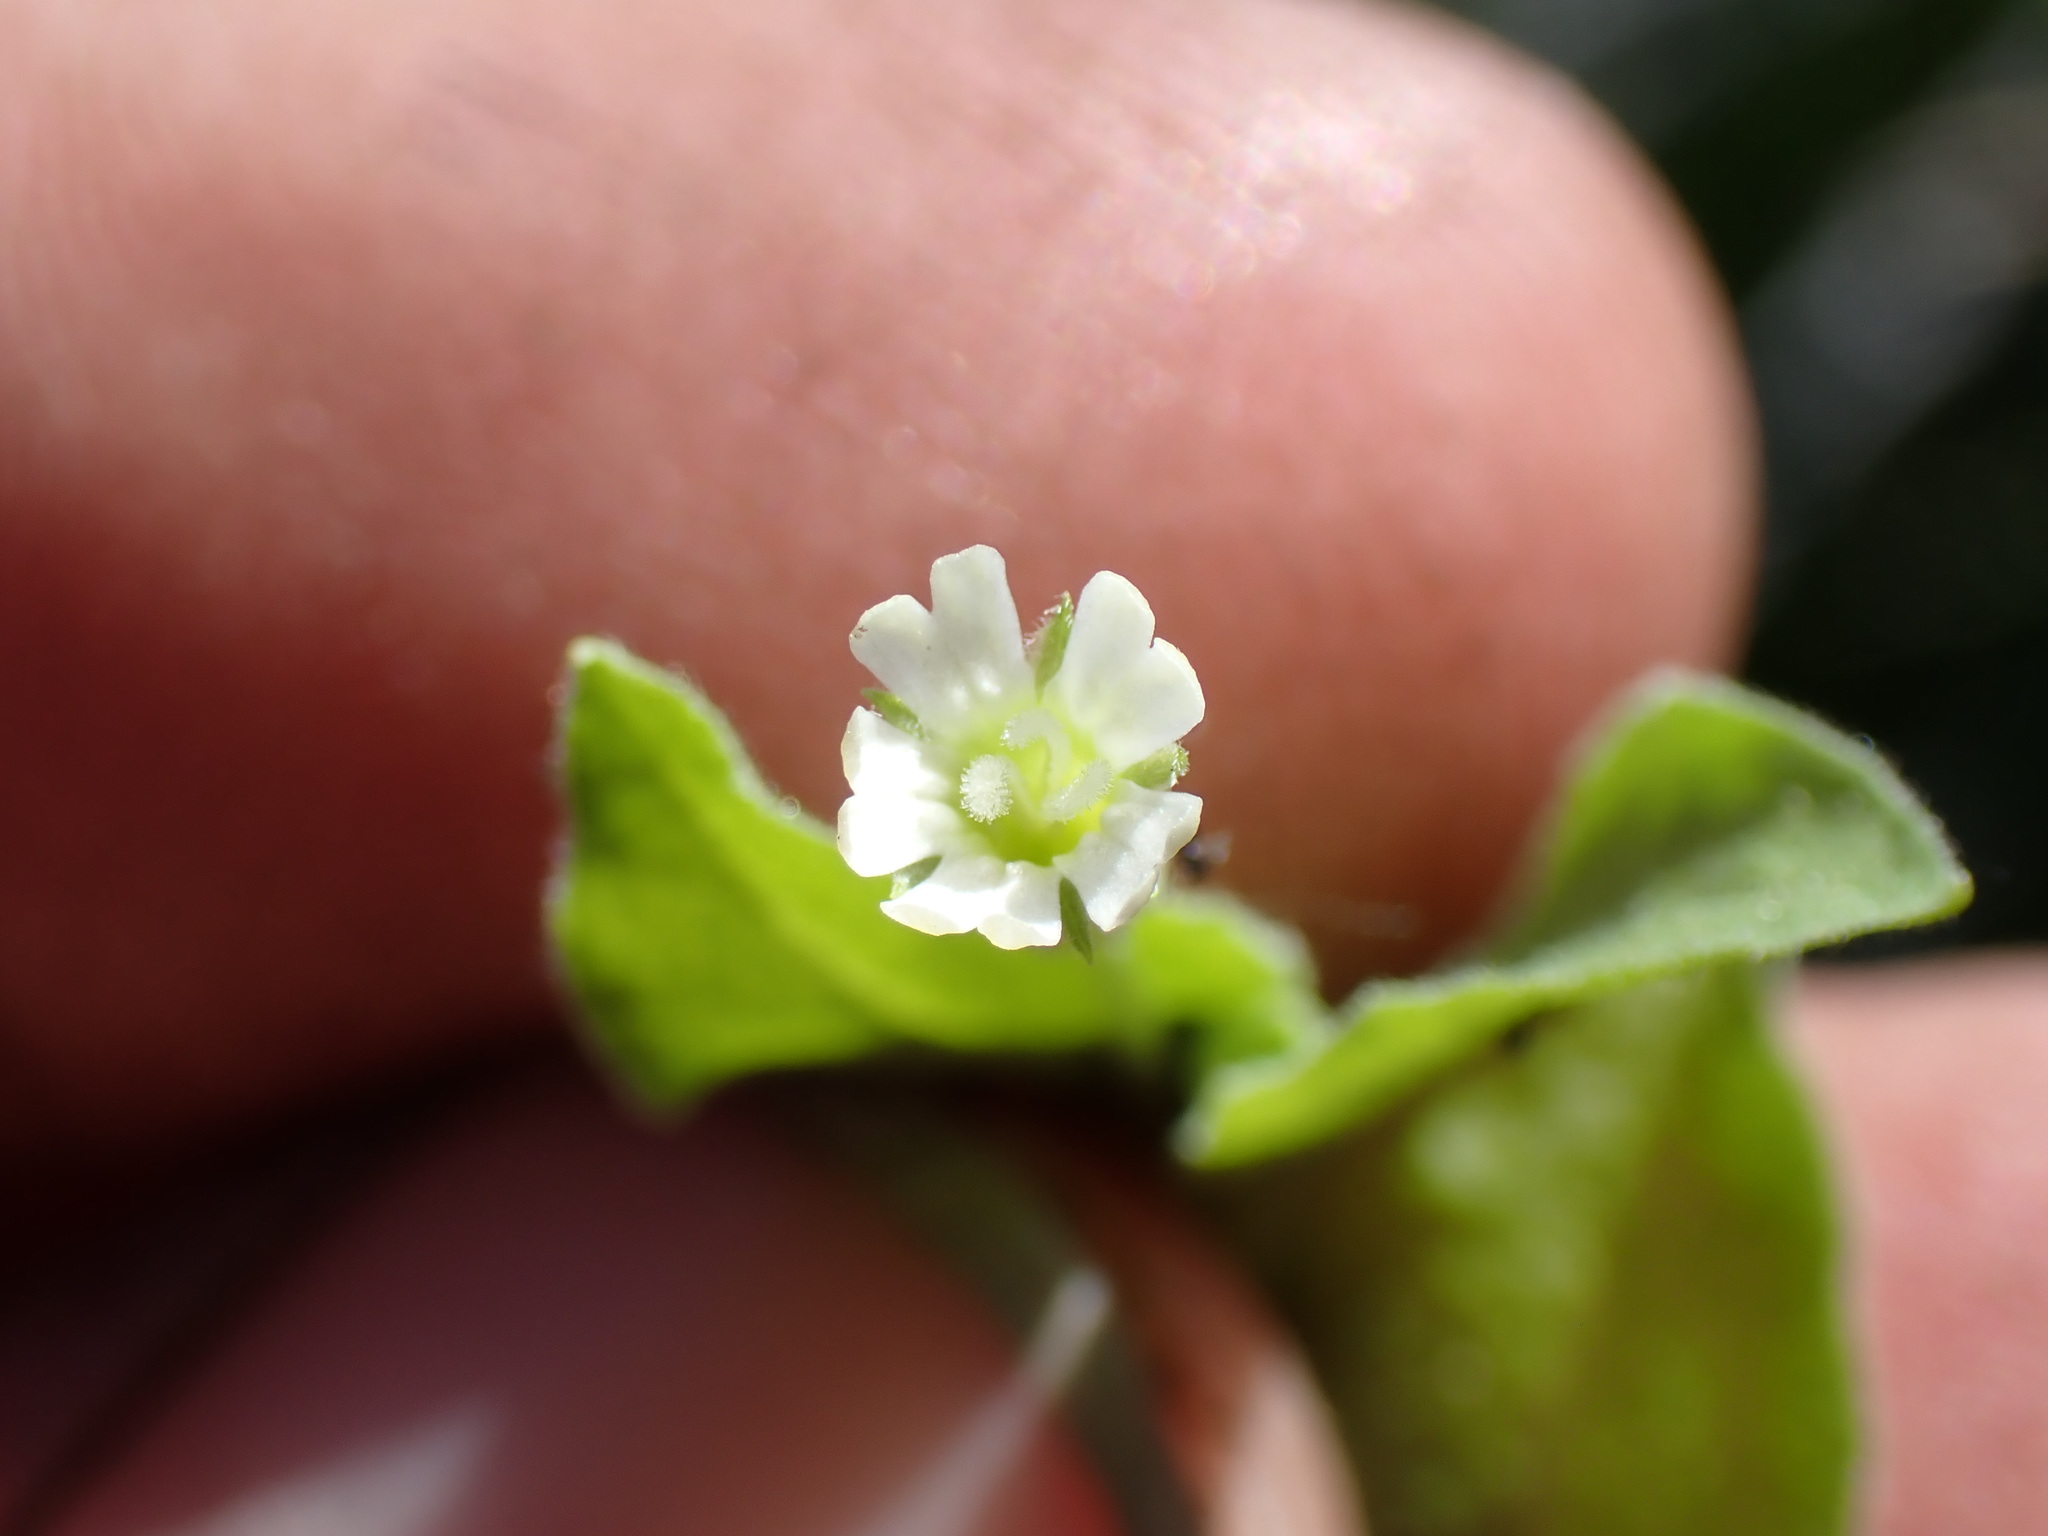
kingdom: Plantae
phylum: Tracheophyta
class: Magnoliopsida
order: Caryophyllales
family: Caryophyllaceae
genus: Silene
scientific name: Silene menziesii
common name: Menzies's catchfly
